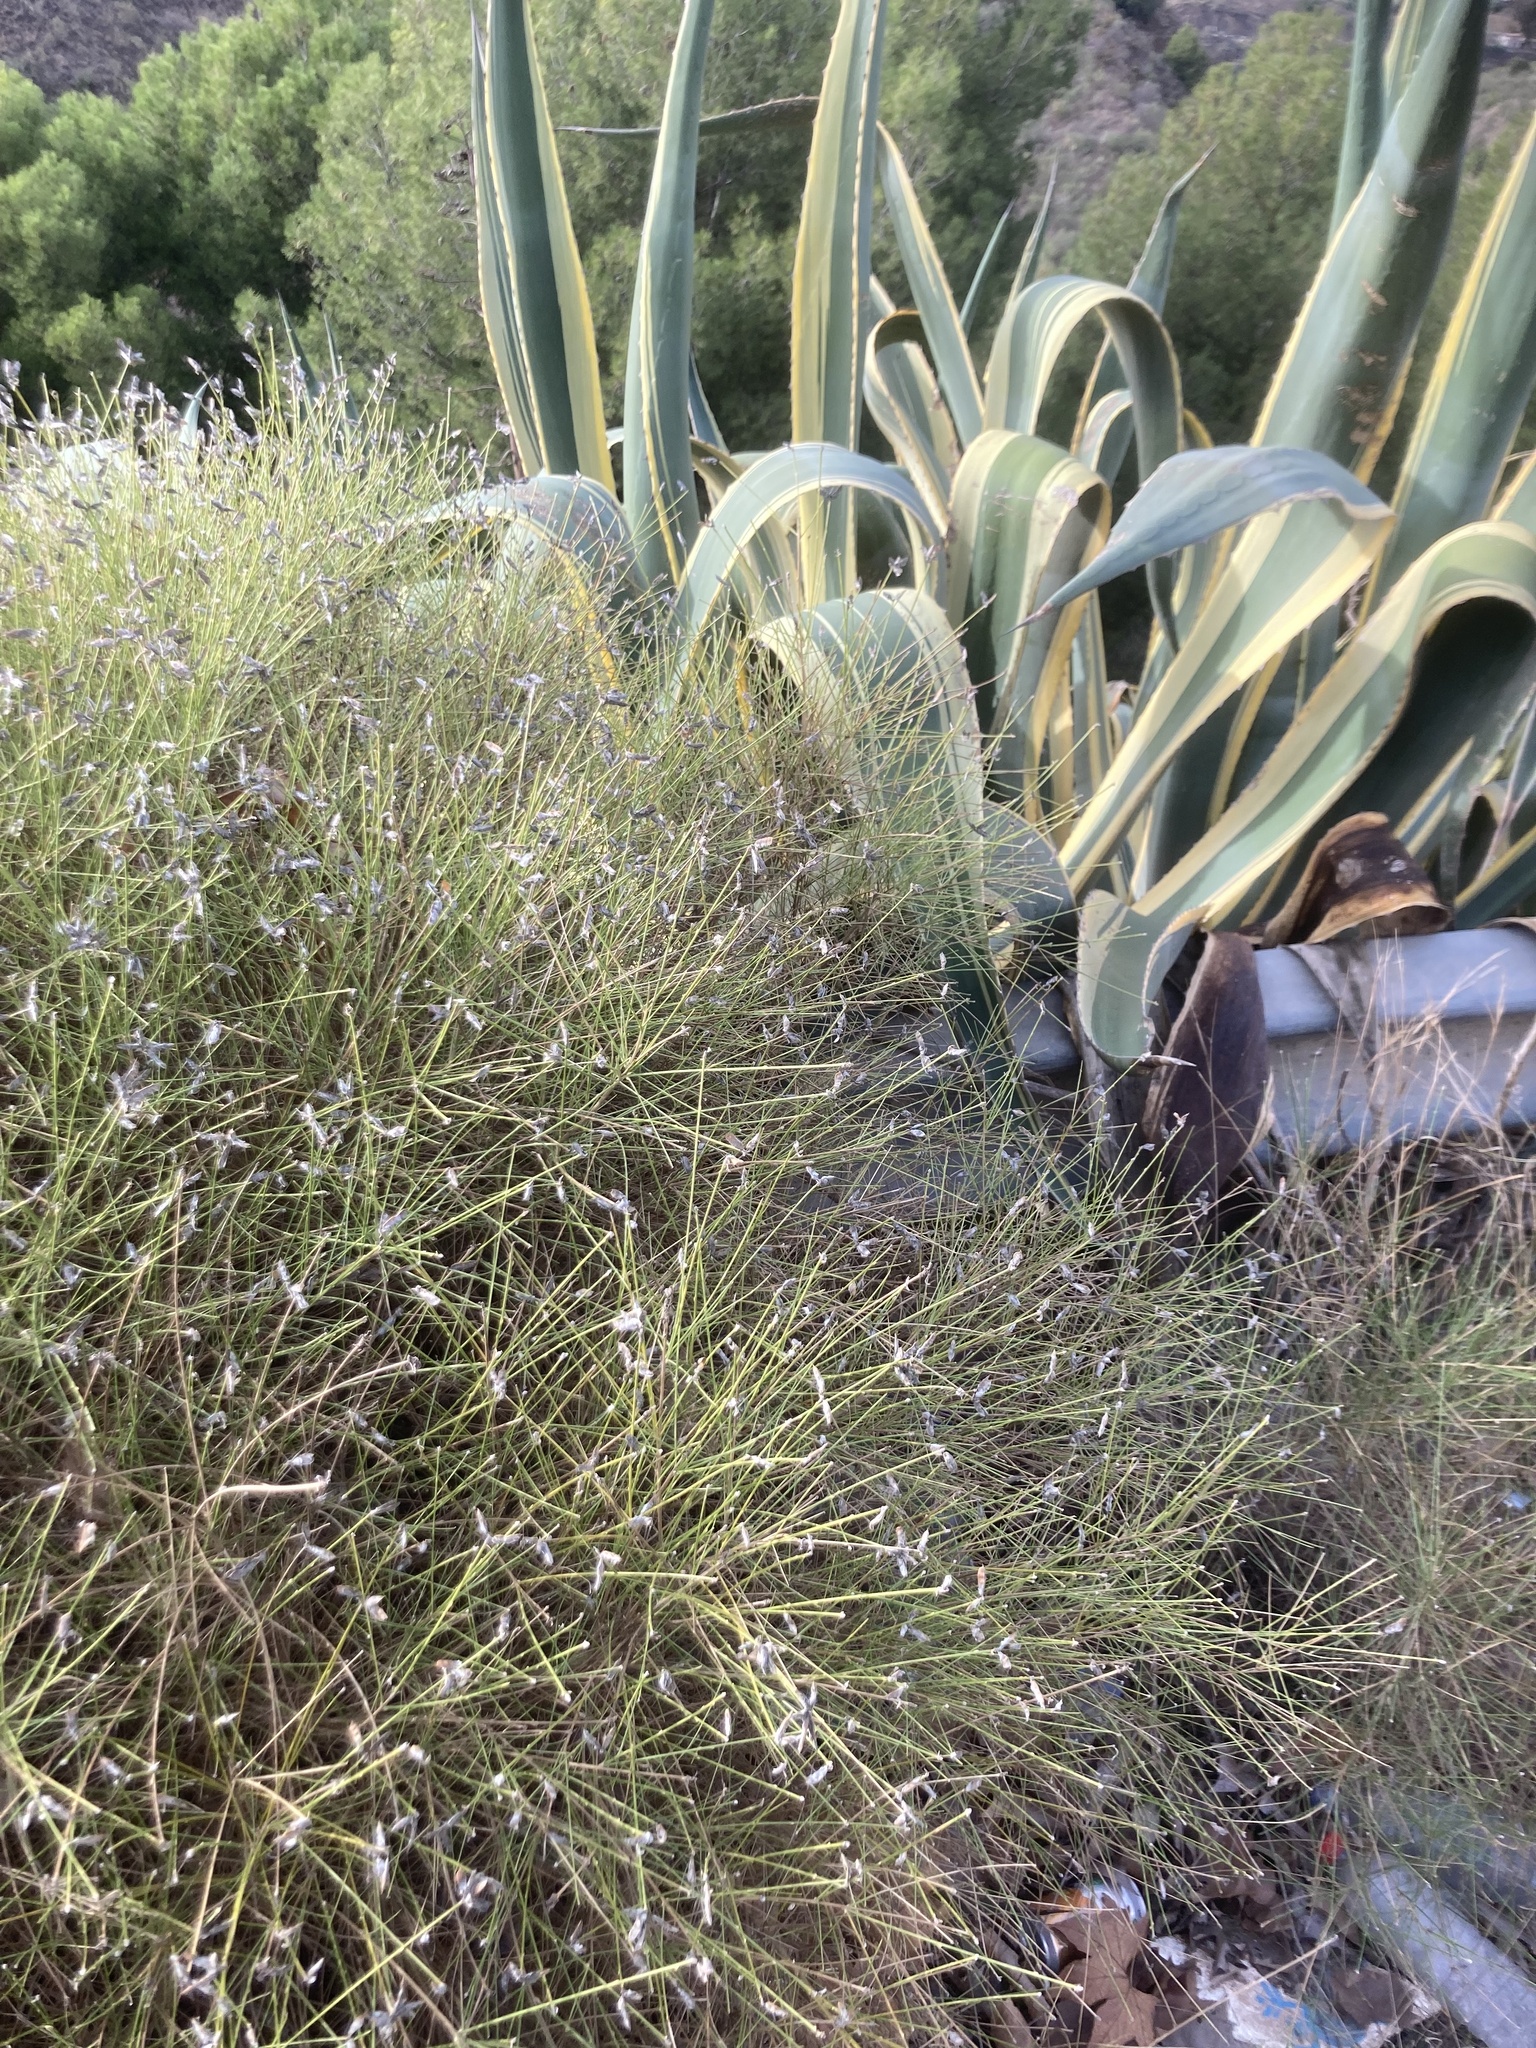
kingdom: Plantae
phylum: Tracheophyta
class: Pinopsida
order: Pinales
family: Pinaceae
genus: Pinus
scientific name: Pinus halepensis
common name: Aleppo pine
